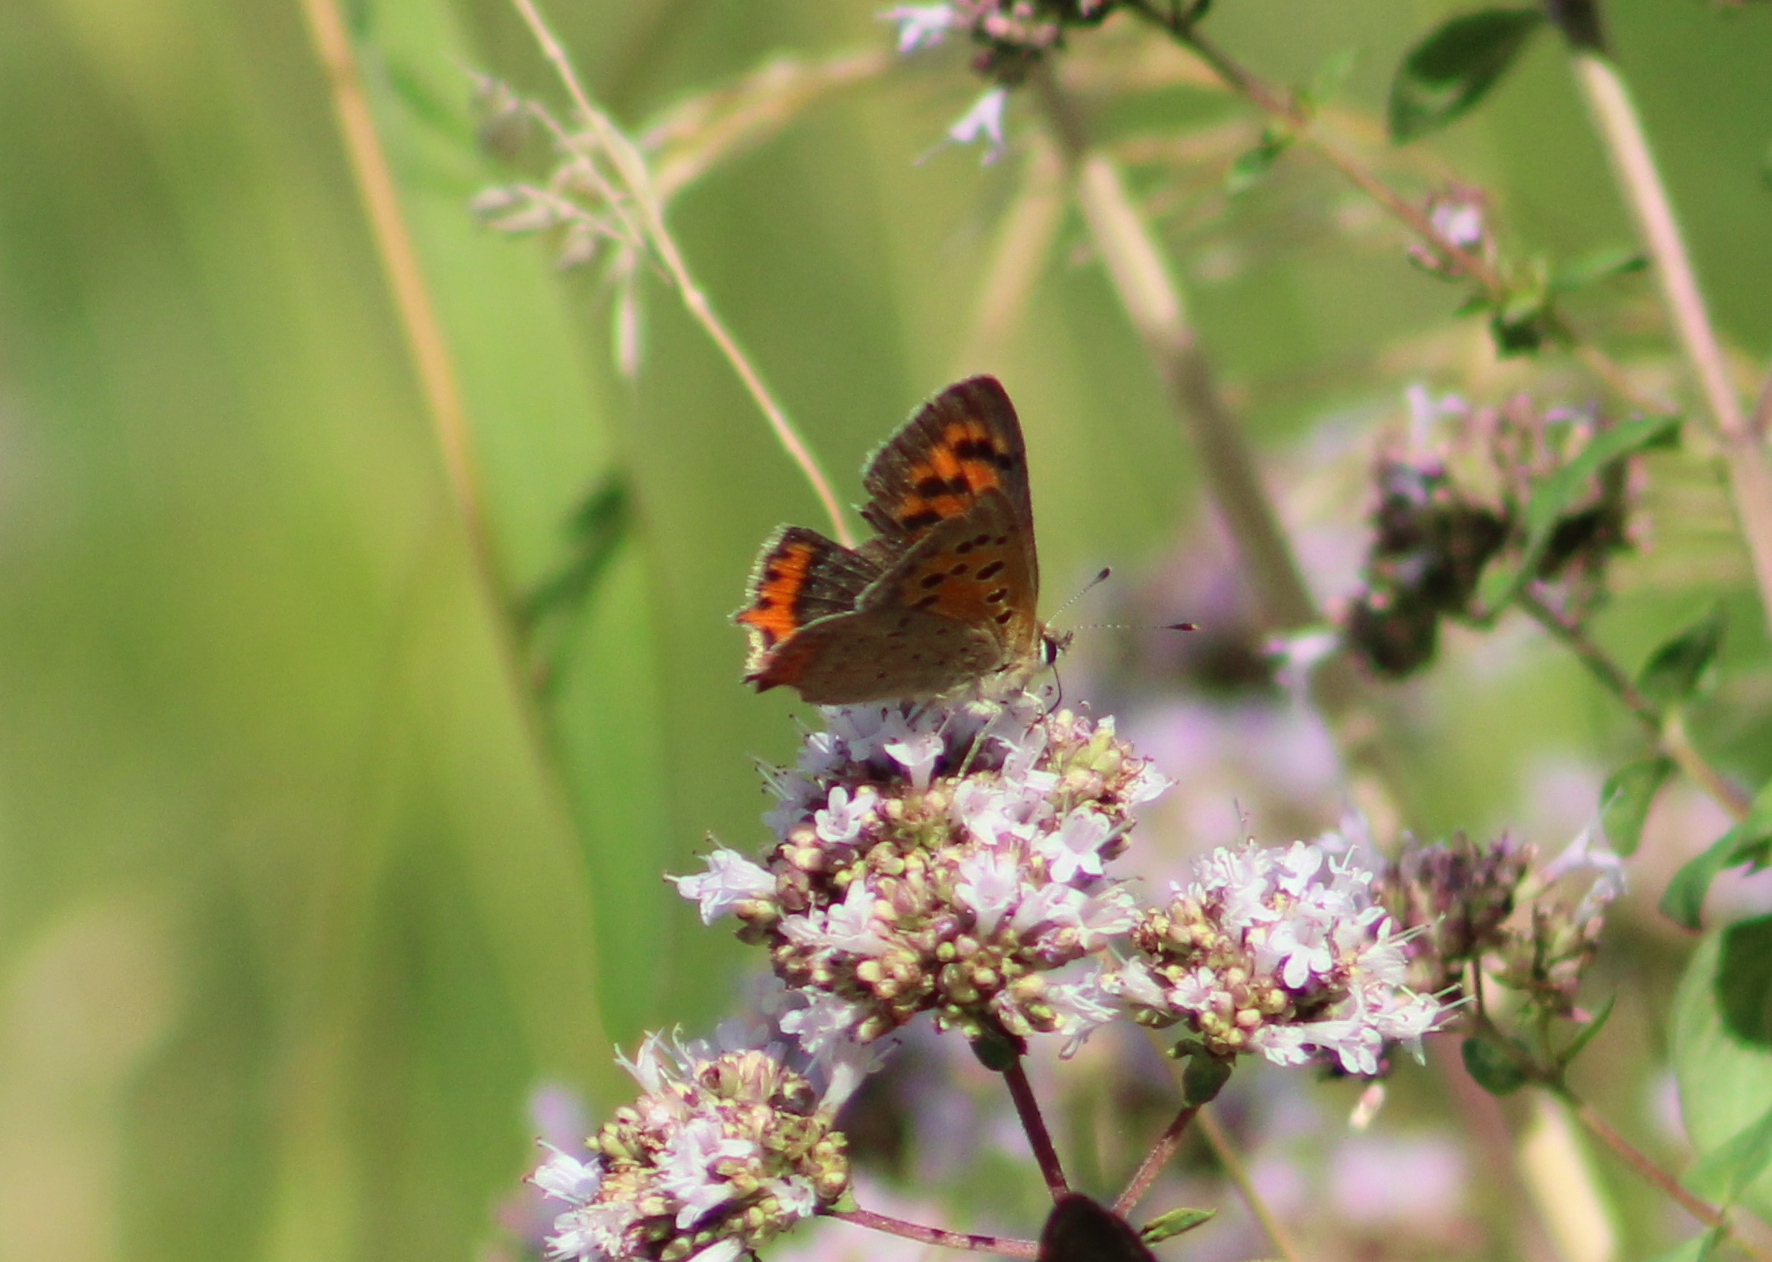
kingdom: Animalia
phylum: Arthropoda
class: Insecta
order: Lepidoptera
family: Lycaenidae
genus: Lycaena
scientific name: Lycaena phlaeas
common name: Small copper
